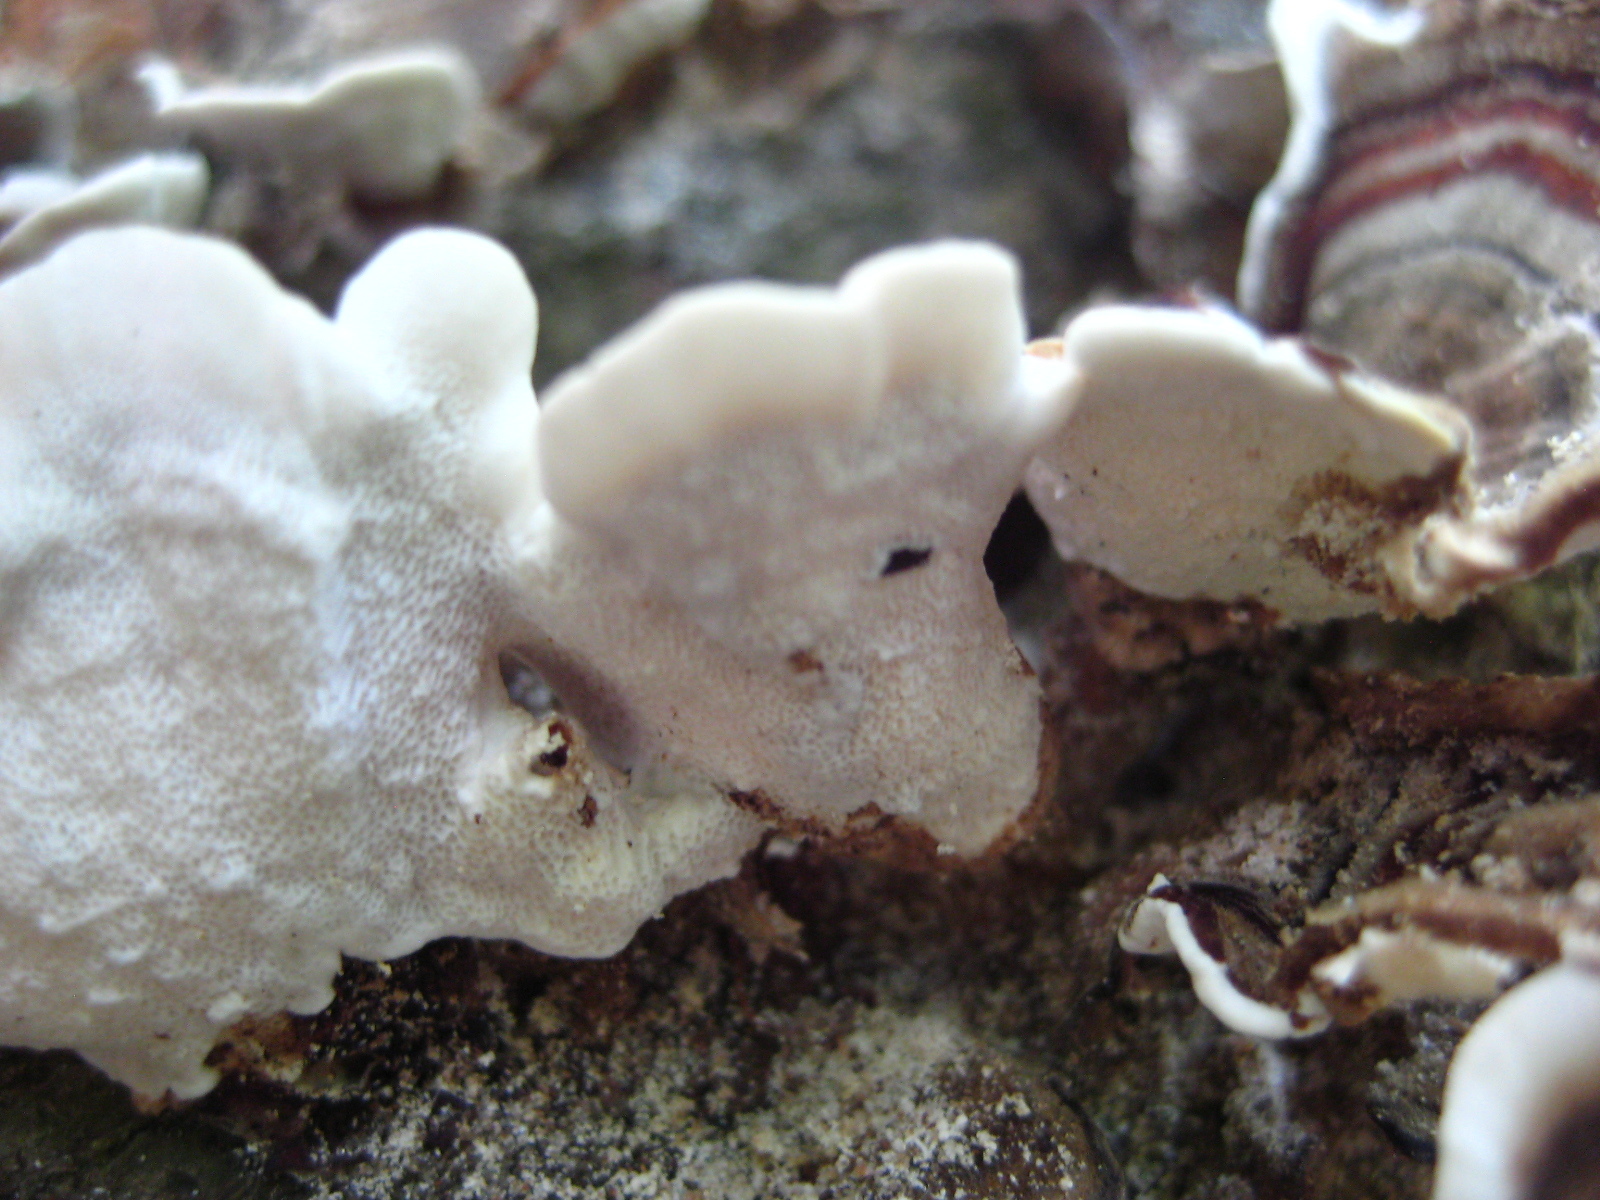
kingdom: Fungi
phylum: Basidiomycota
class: Agaricomycetes
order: Polyporales
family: Polyporaceae
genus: Trametes
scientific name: Trametes versicolor
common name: Turkeytail
